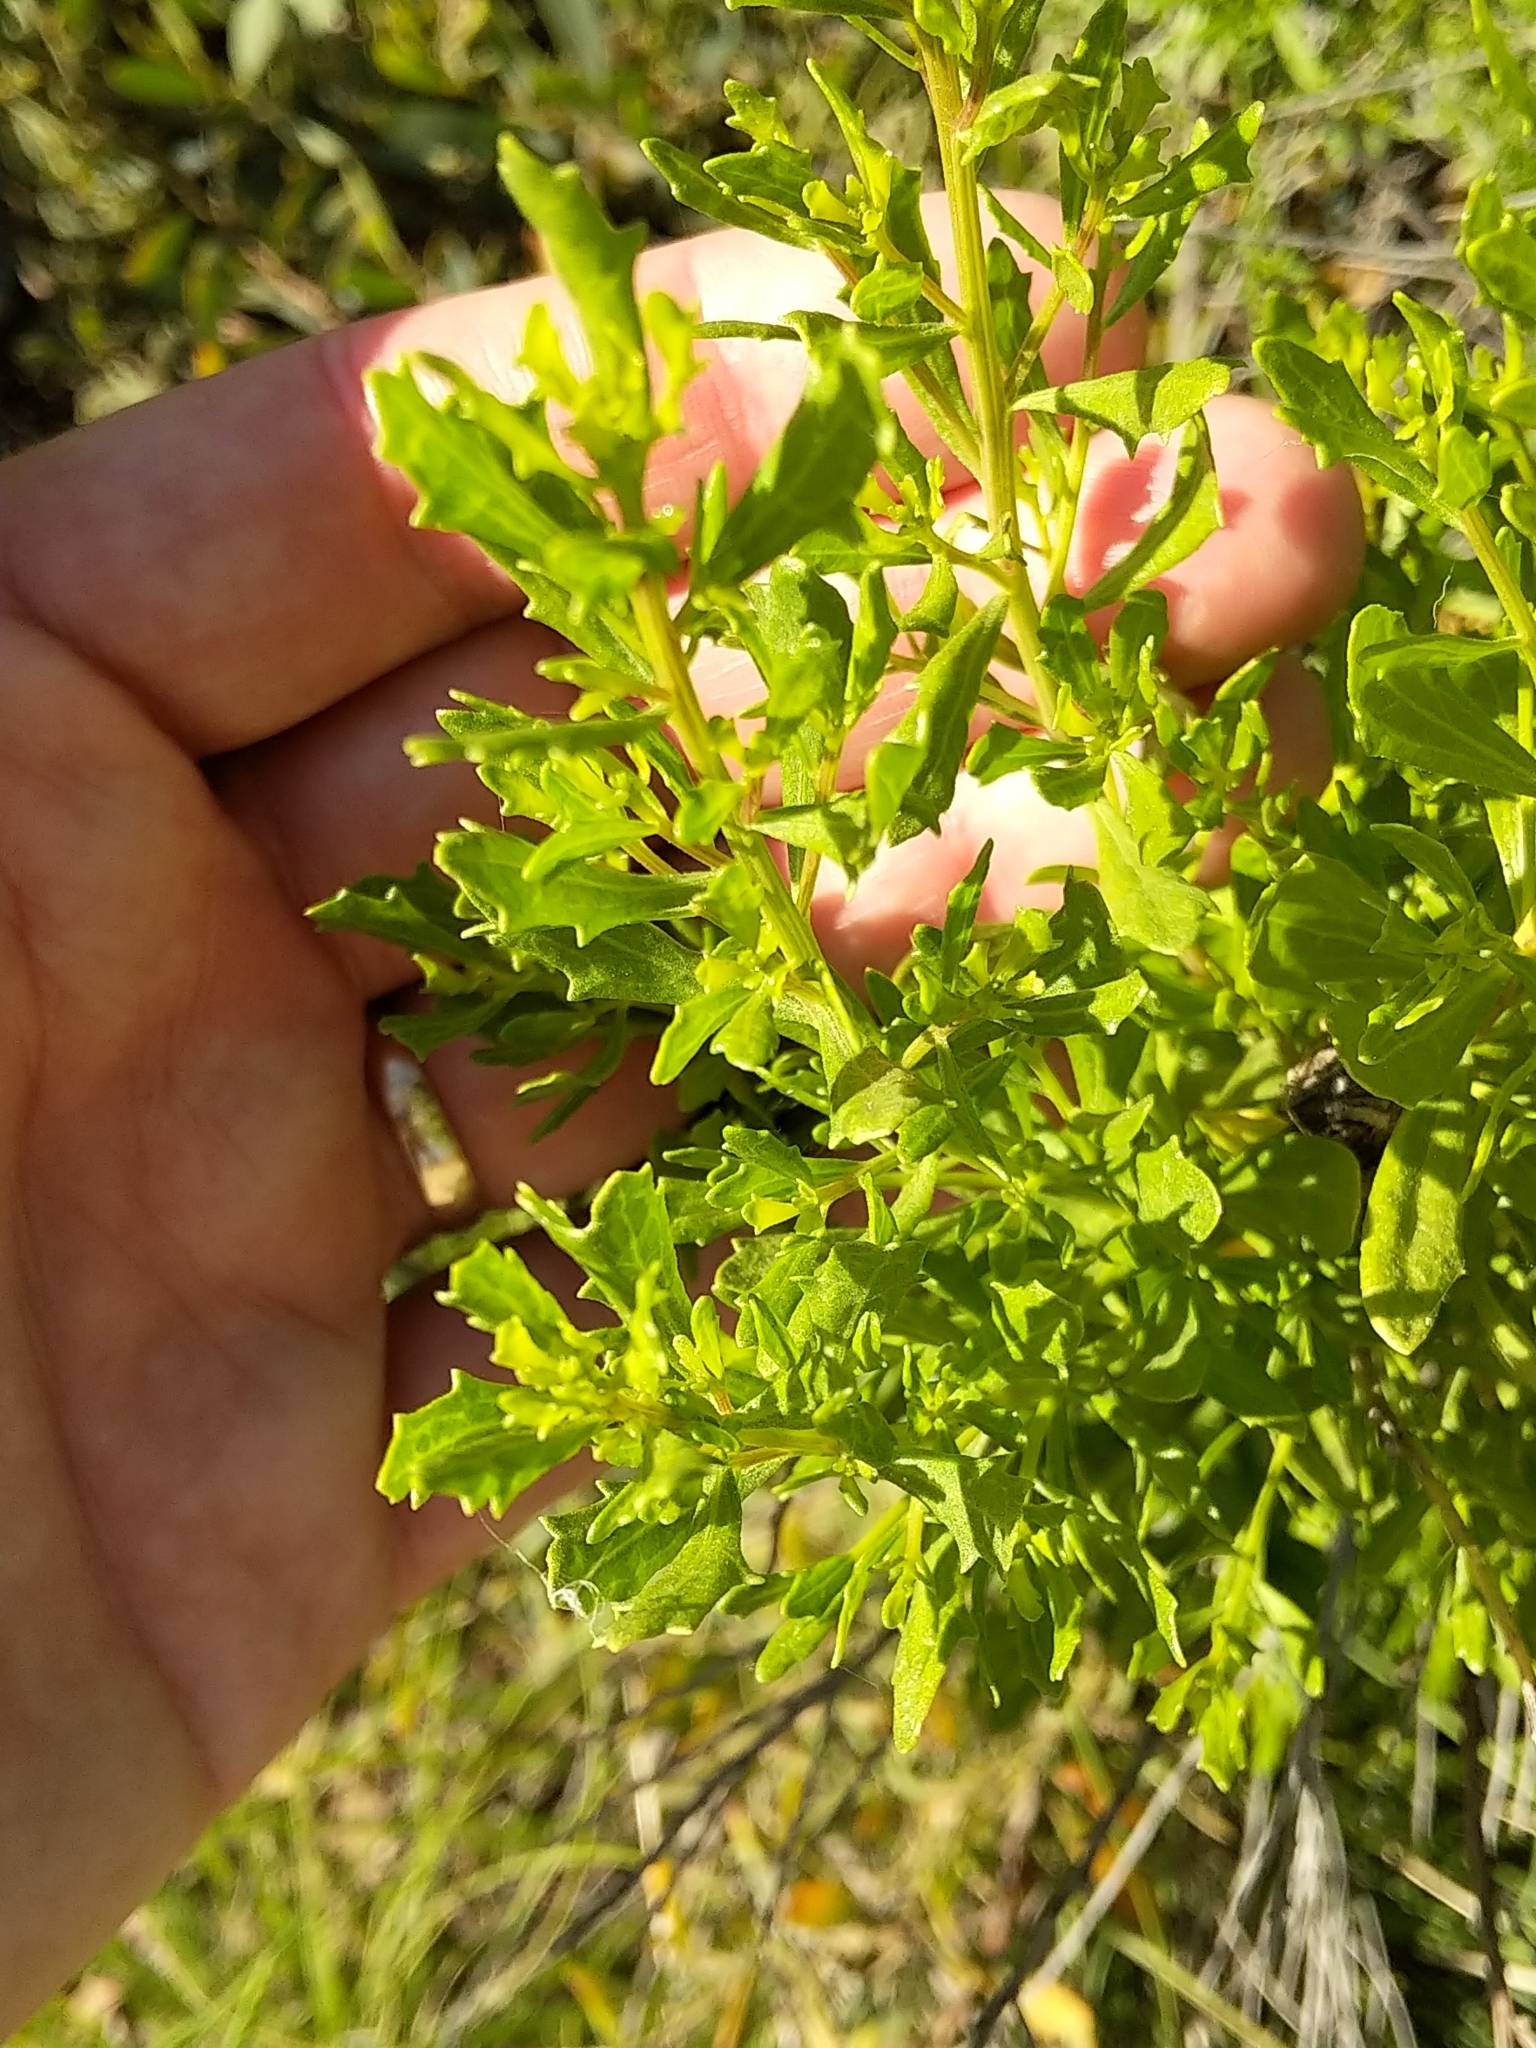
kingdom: Plantae
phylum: Tracheophyta
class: Magnoliopsida
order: Asterales
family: Asteraceae
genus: Baccharis
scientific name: Baccharis pilularis
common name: Coyotebrush
